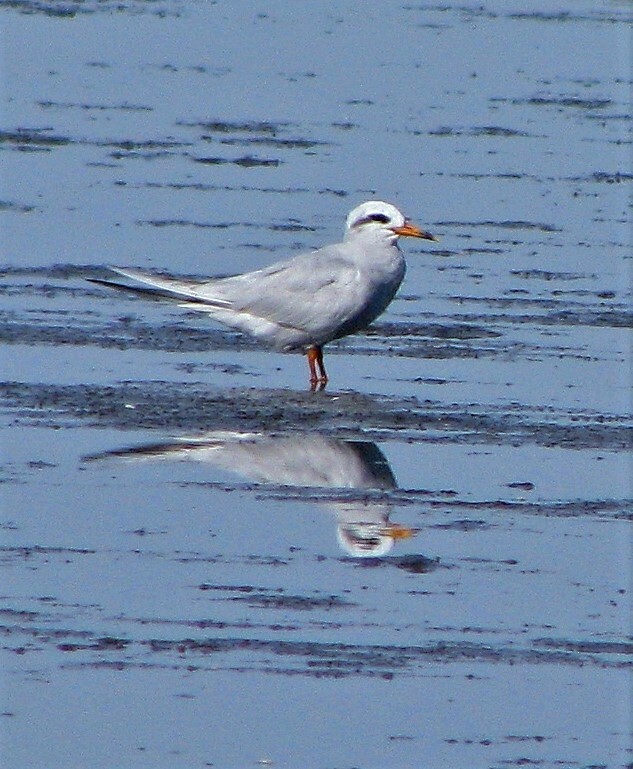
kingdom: Animalia
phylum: Chordata
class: Aves
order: Charadriiformes
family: Laridae
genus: Sterna
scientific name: Sterna trudeaui
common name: Snowy-crowned tern
